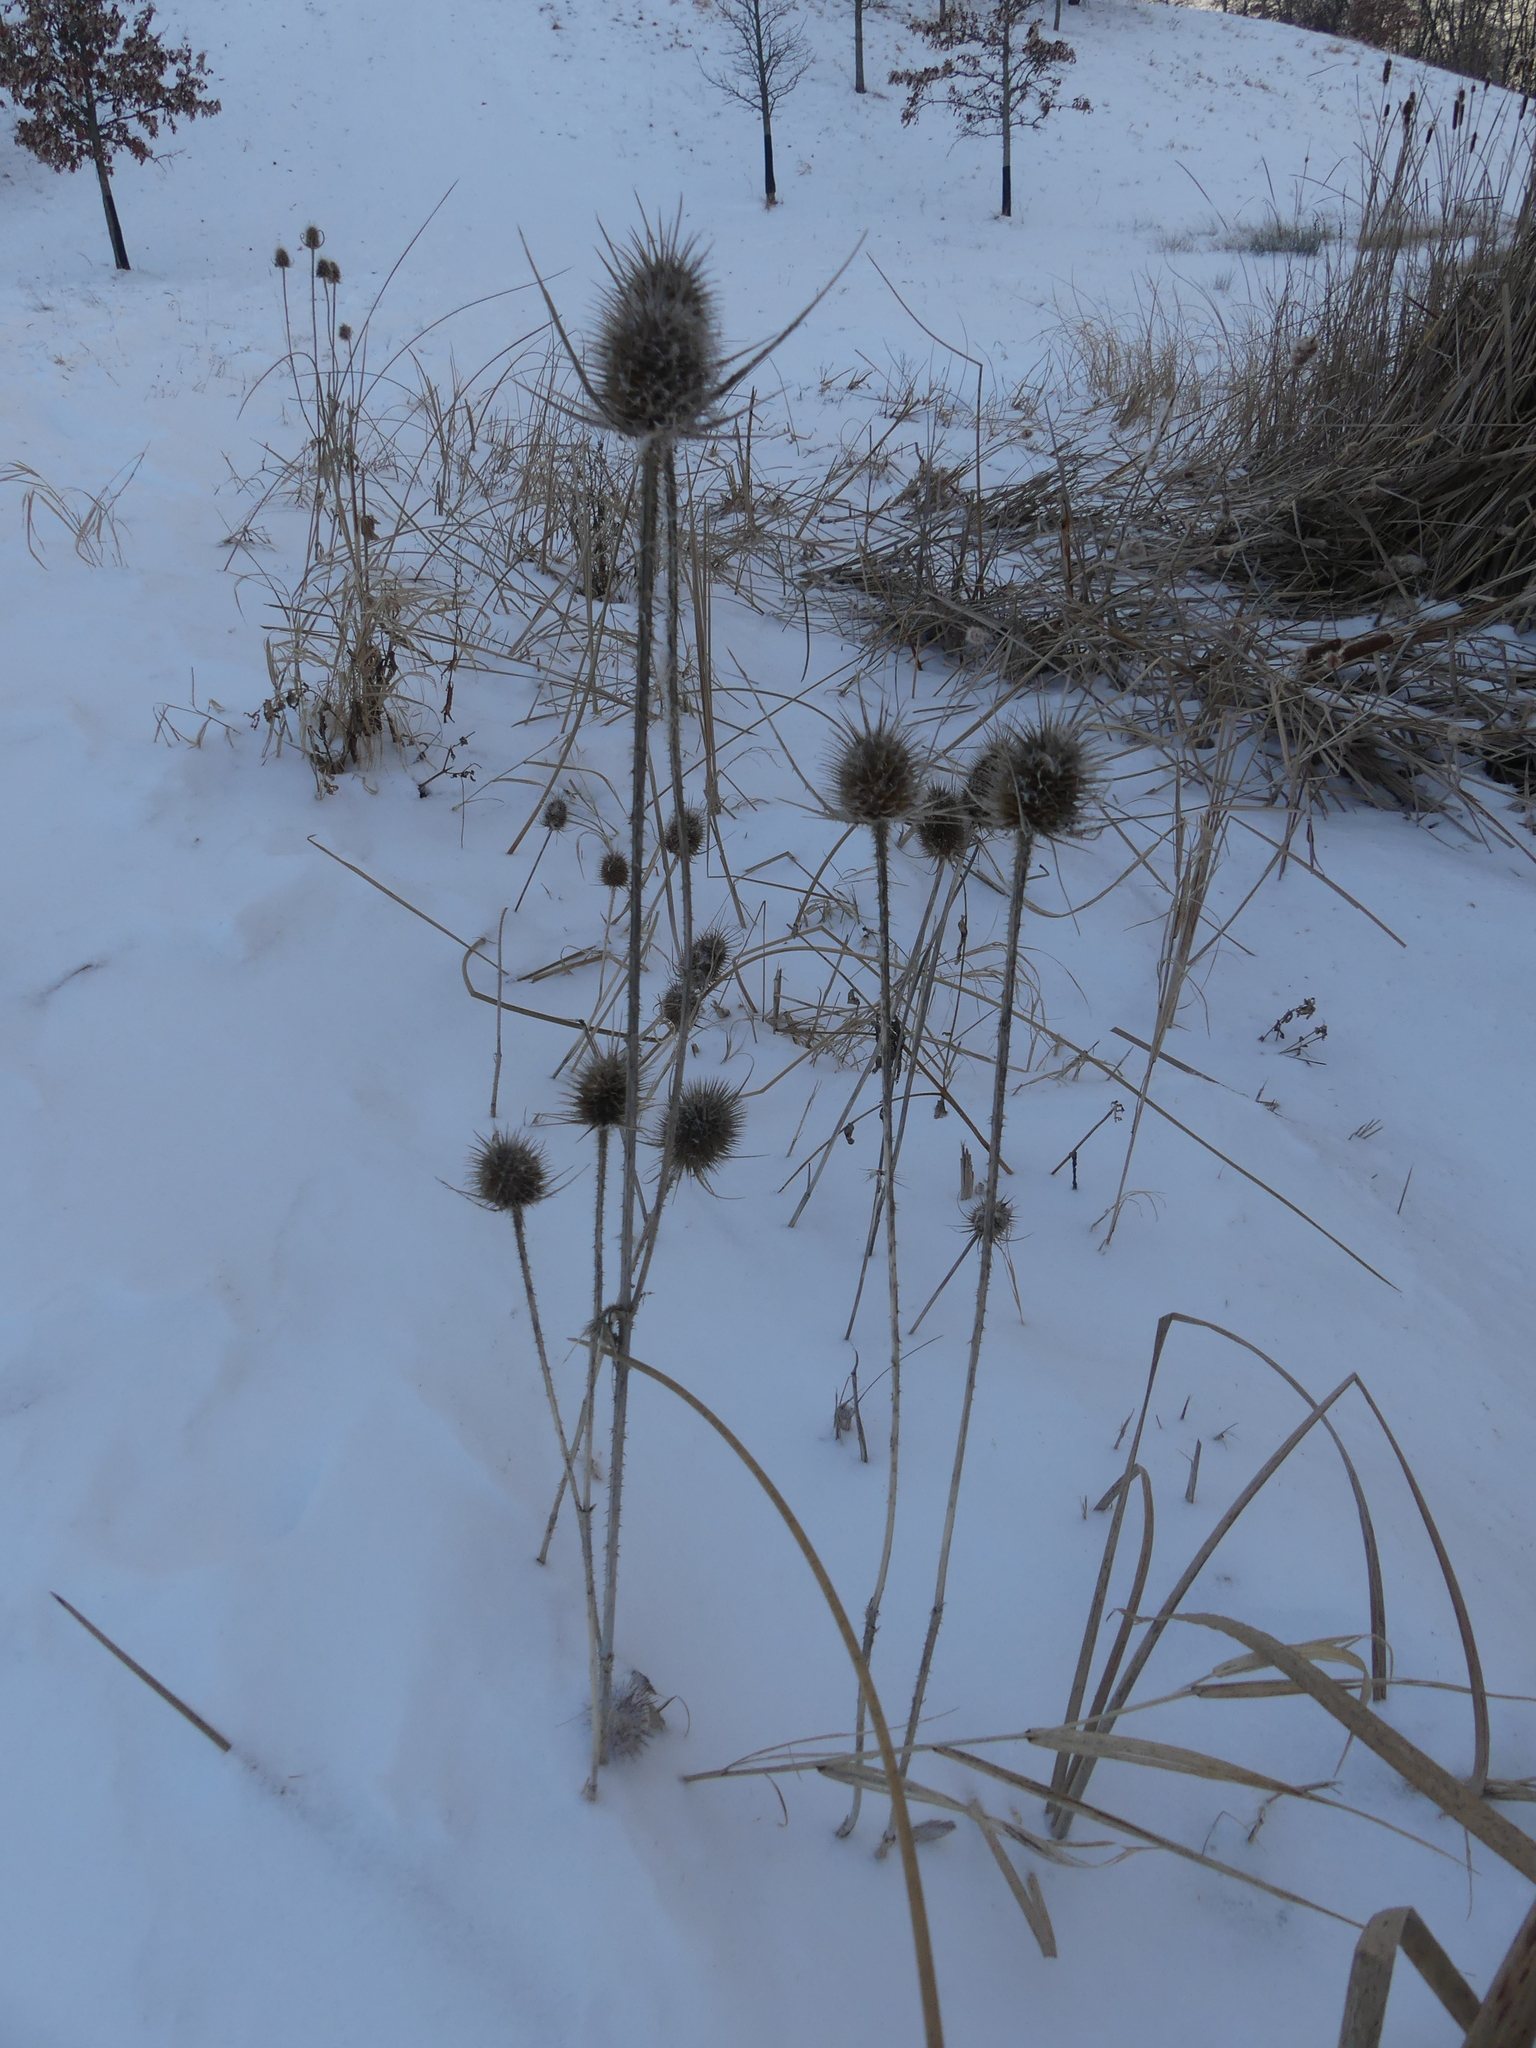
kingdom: Plantae
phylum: Tracheophyta
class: Magnoliopsida
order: Dipsacales
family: Caprifoliaceae
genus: Dipsacus
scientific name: Dipsacus fullonum
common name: Teasel
